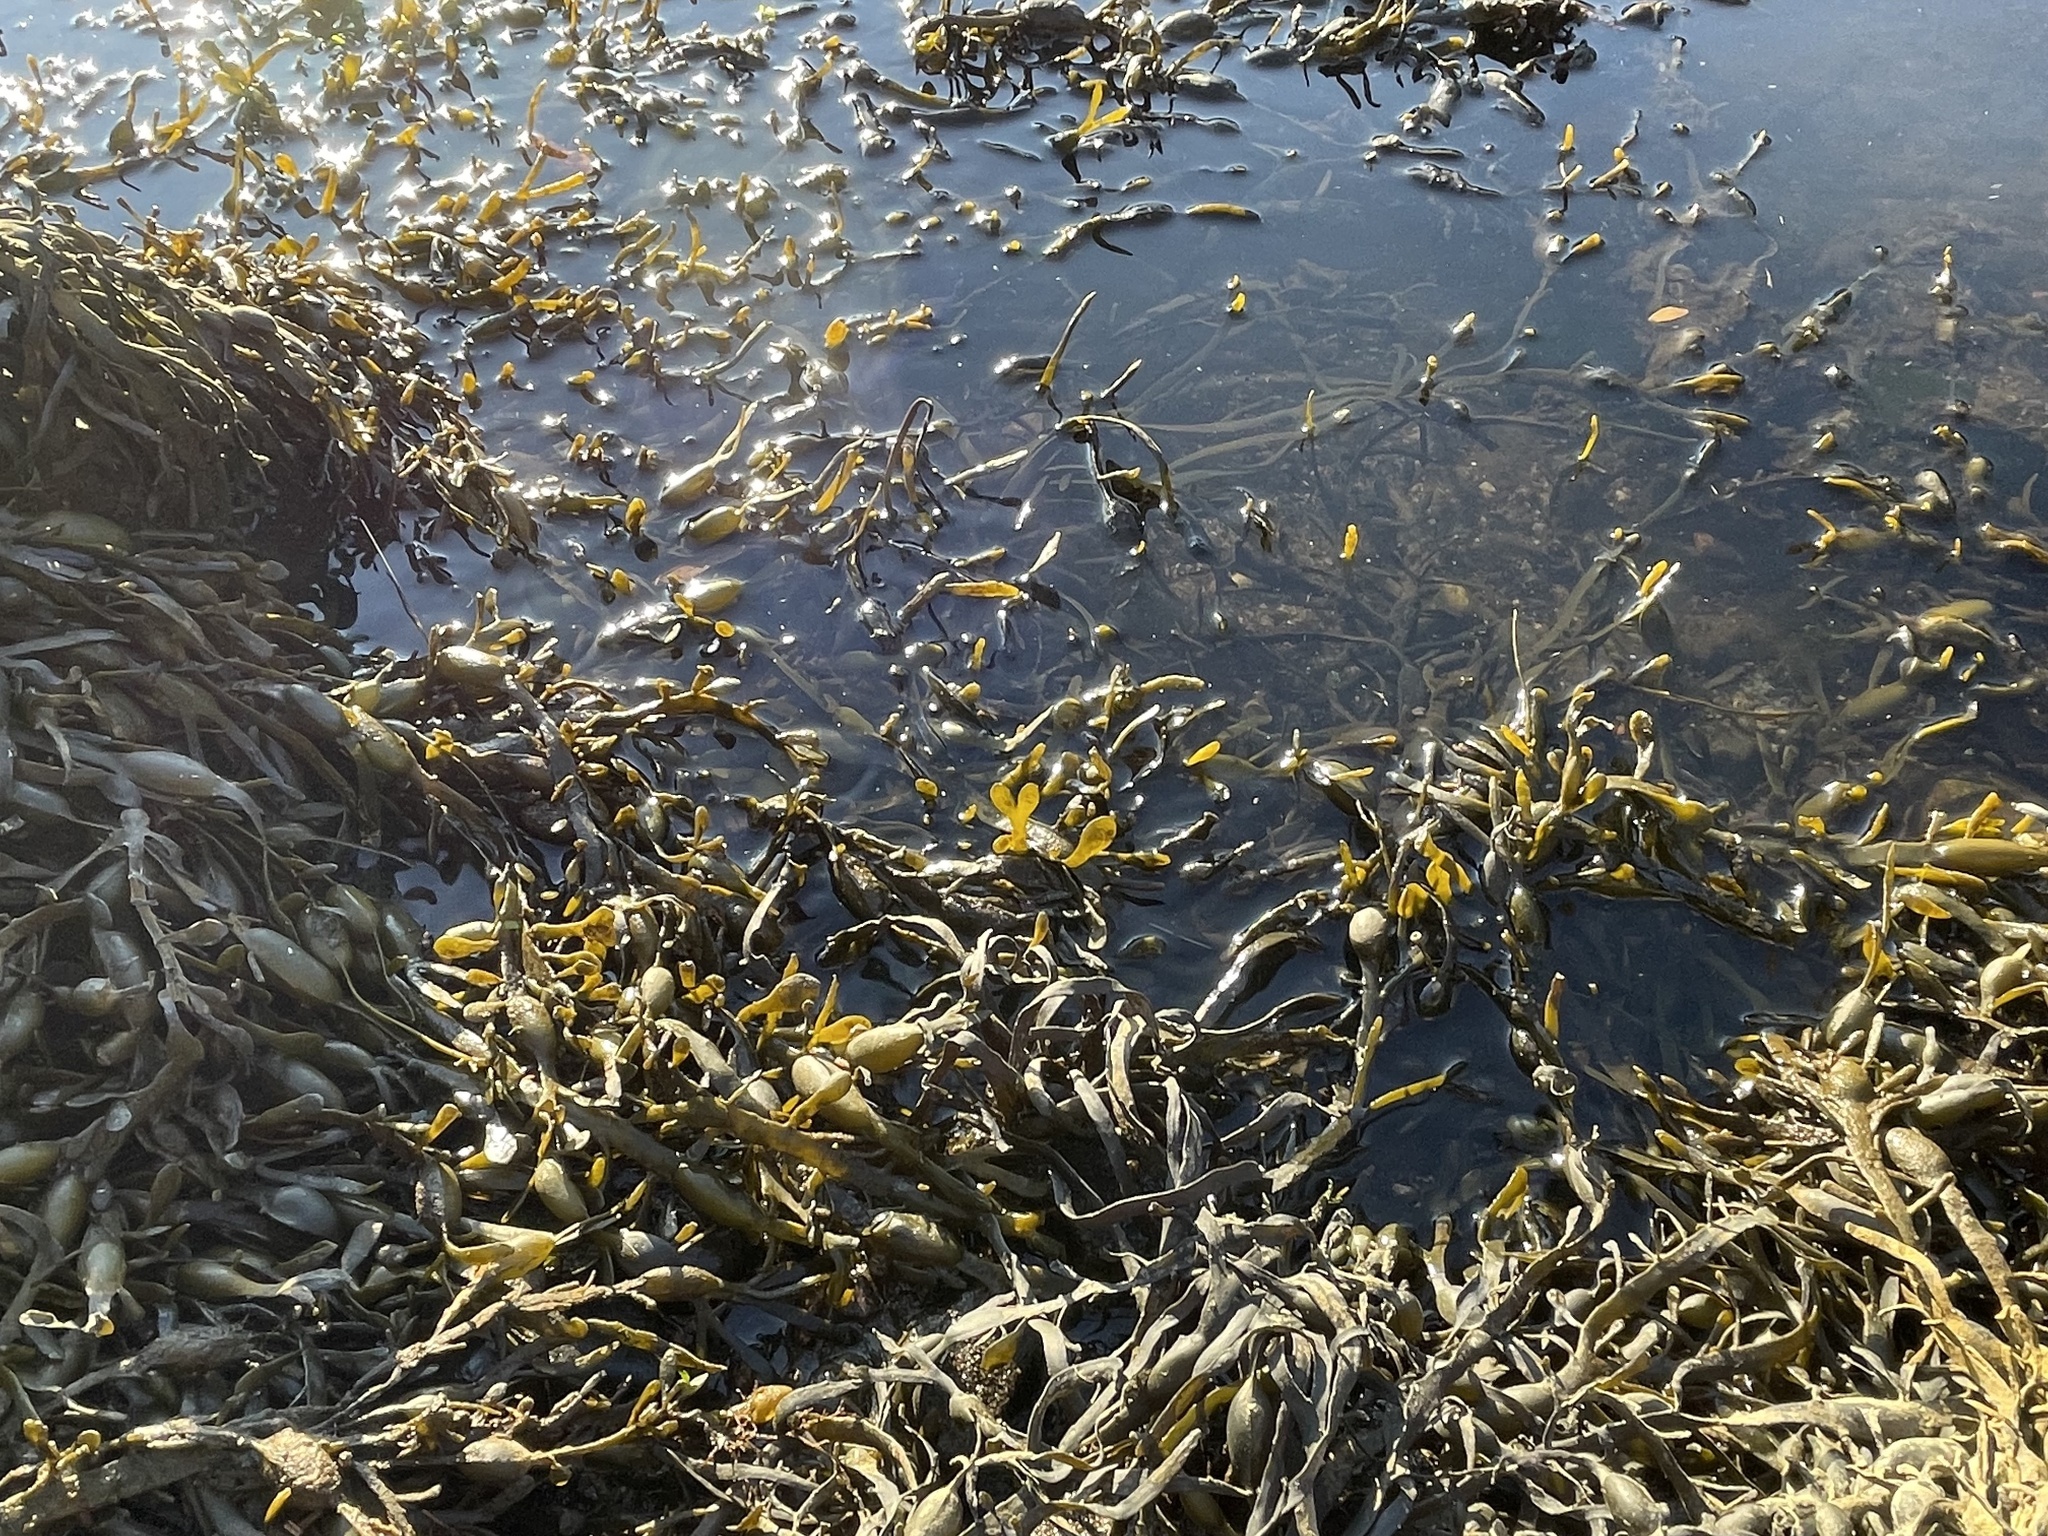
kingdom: Chromista
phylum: Ochrophyta
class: Phaeophyceae
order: Fucales
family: Fucaceae
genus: Ascophyllum
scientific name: Ascophyllum nodosum
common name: Knotted wrack
